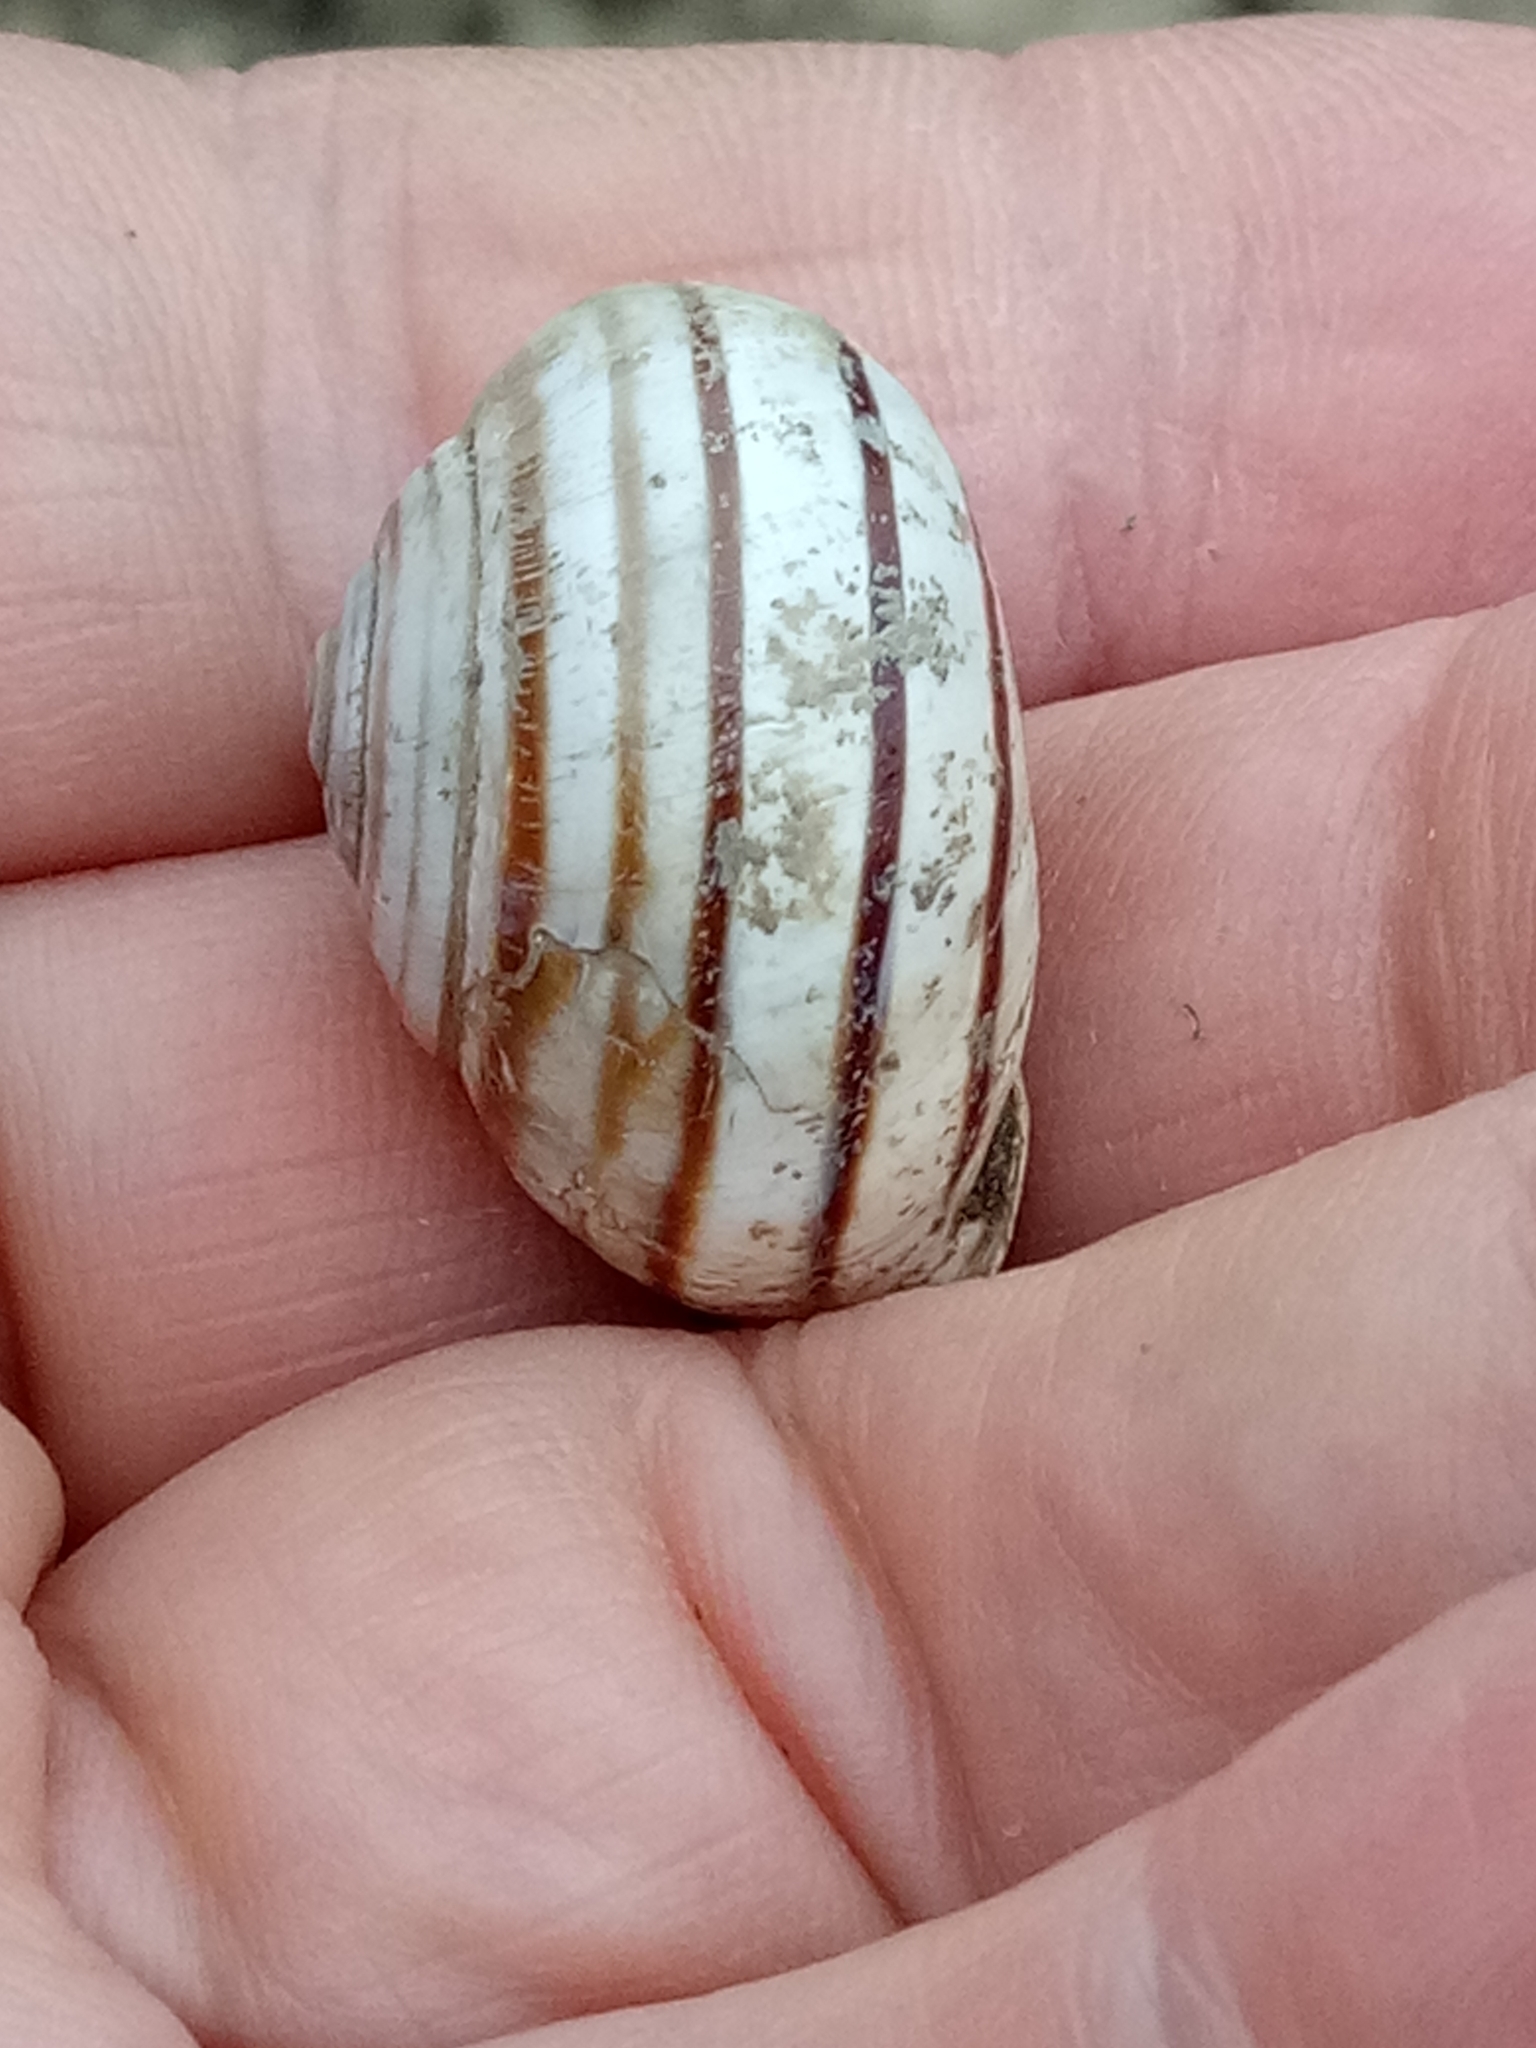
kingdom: Animalia
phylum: Mollusca
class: Gastropoda
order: Stylommatophora
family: Helicidae
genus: Eobania
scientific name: Eobania constantina
